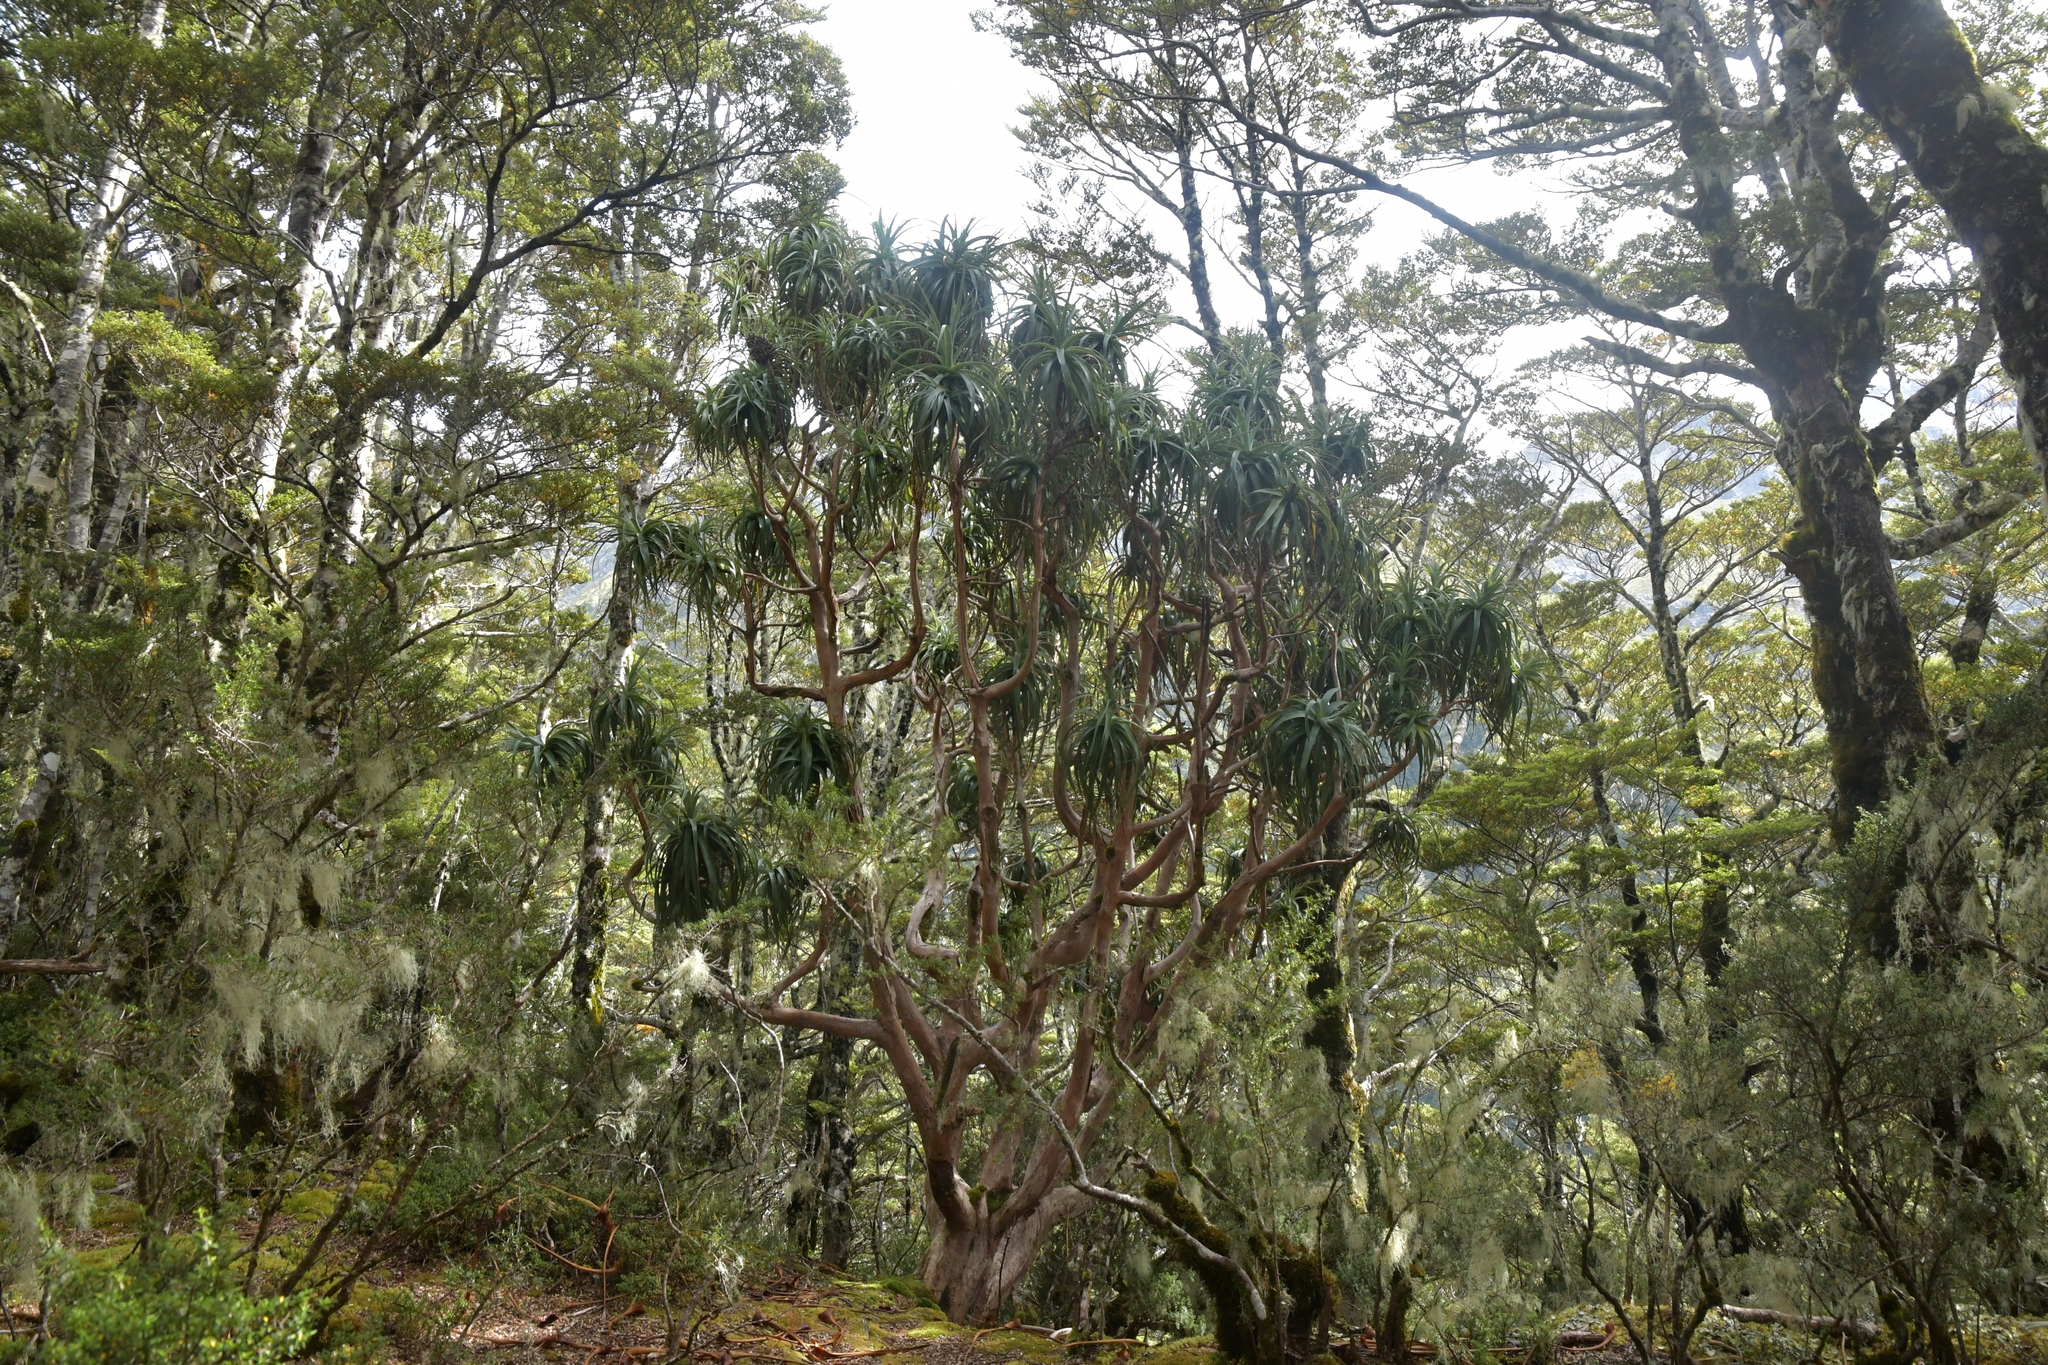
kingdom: Plantae
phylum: Tracheophyta
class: Magnoliopsida
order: Ericales
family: Ericaceae
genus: Dracophyllum
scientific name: Dracophyllum traversii
